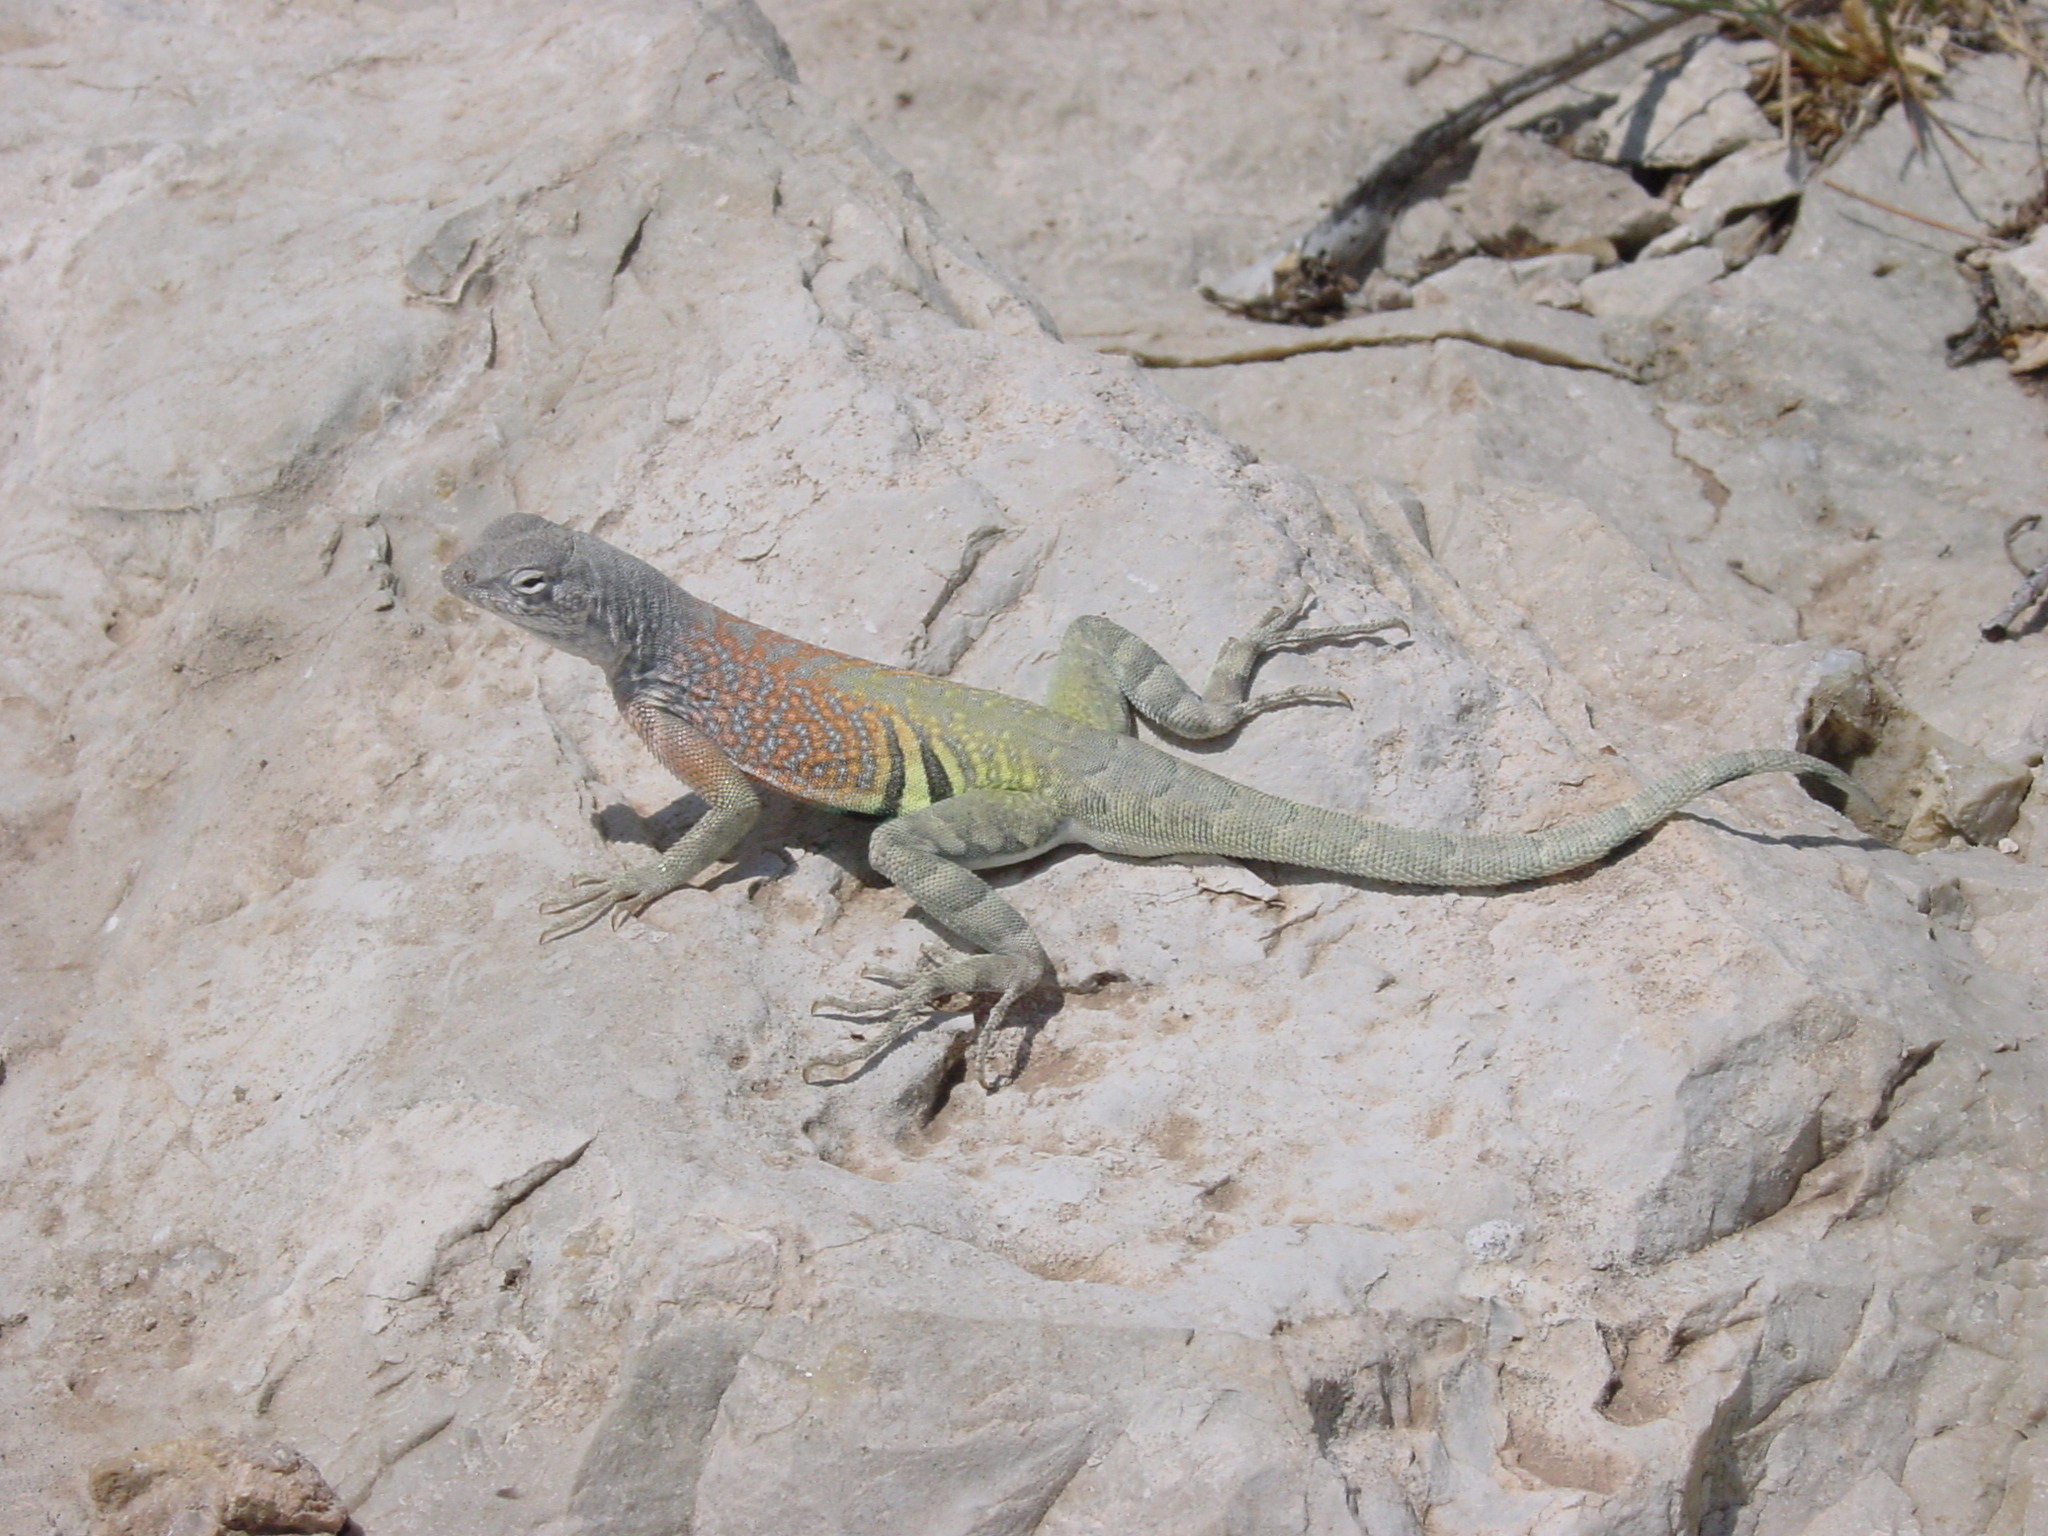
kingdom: Animalia
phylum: Chordata
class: Squamata
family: Phrynosomatidae
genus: Cophosaurus
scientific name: Cophosaurus texanus
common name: Greater earless lizard
